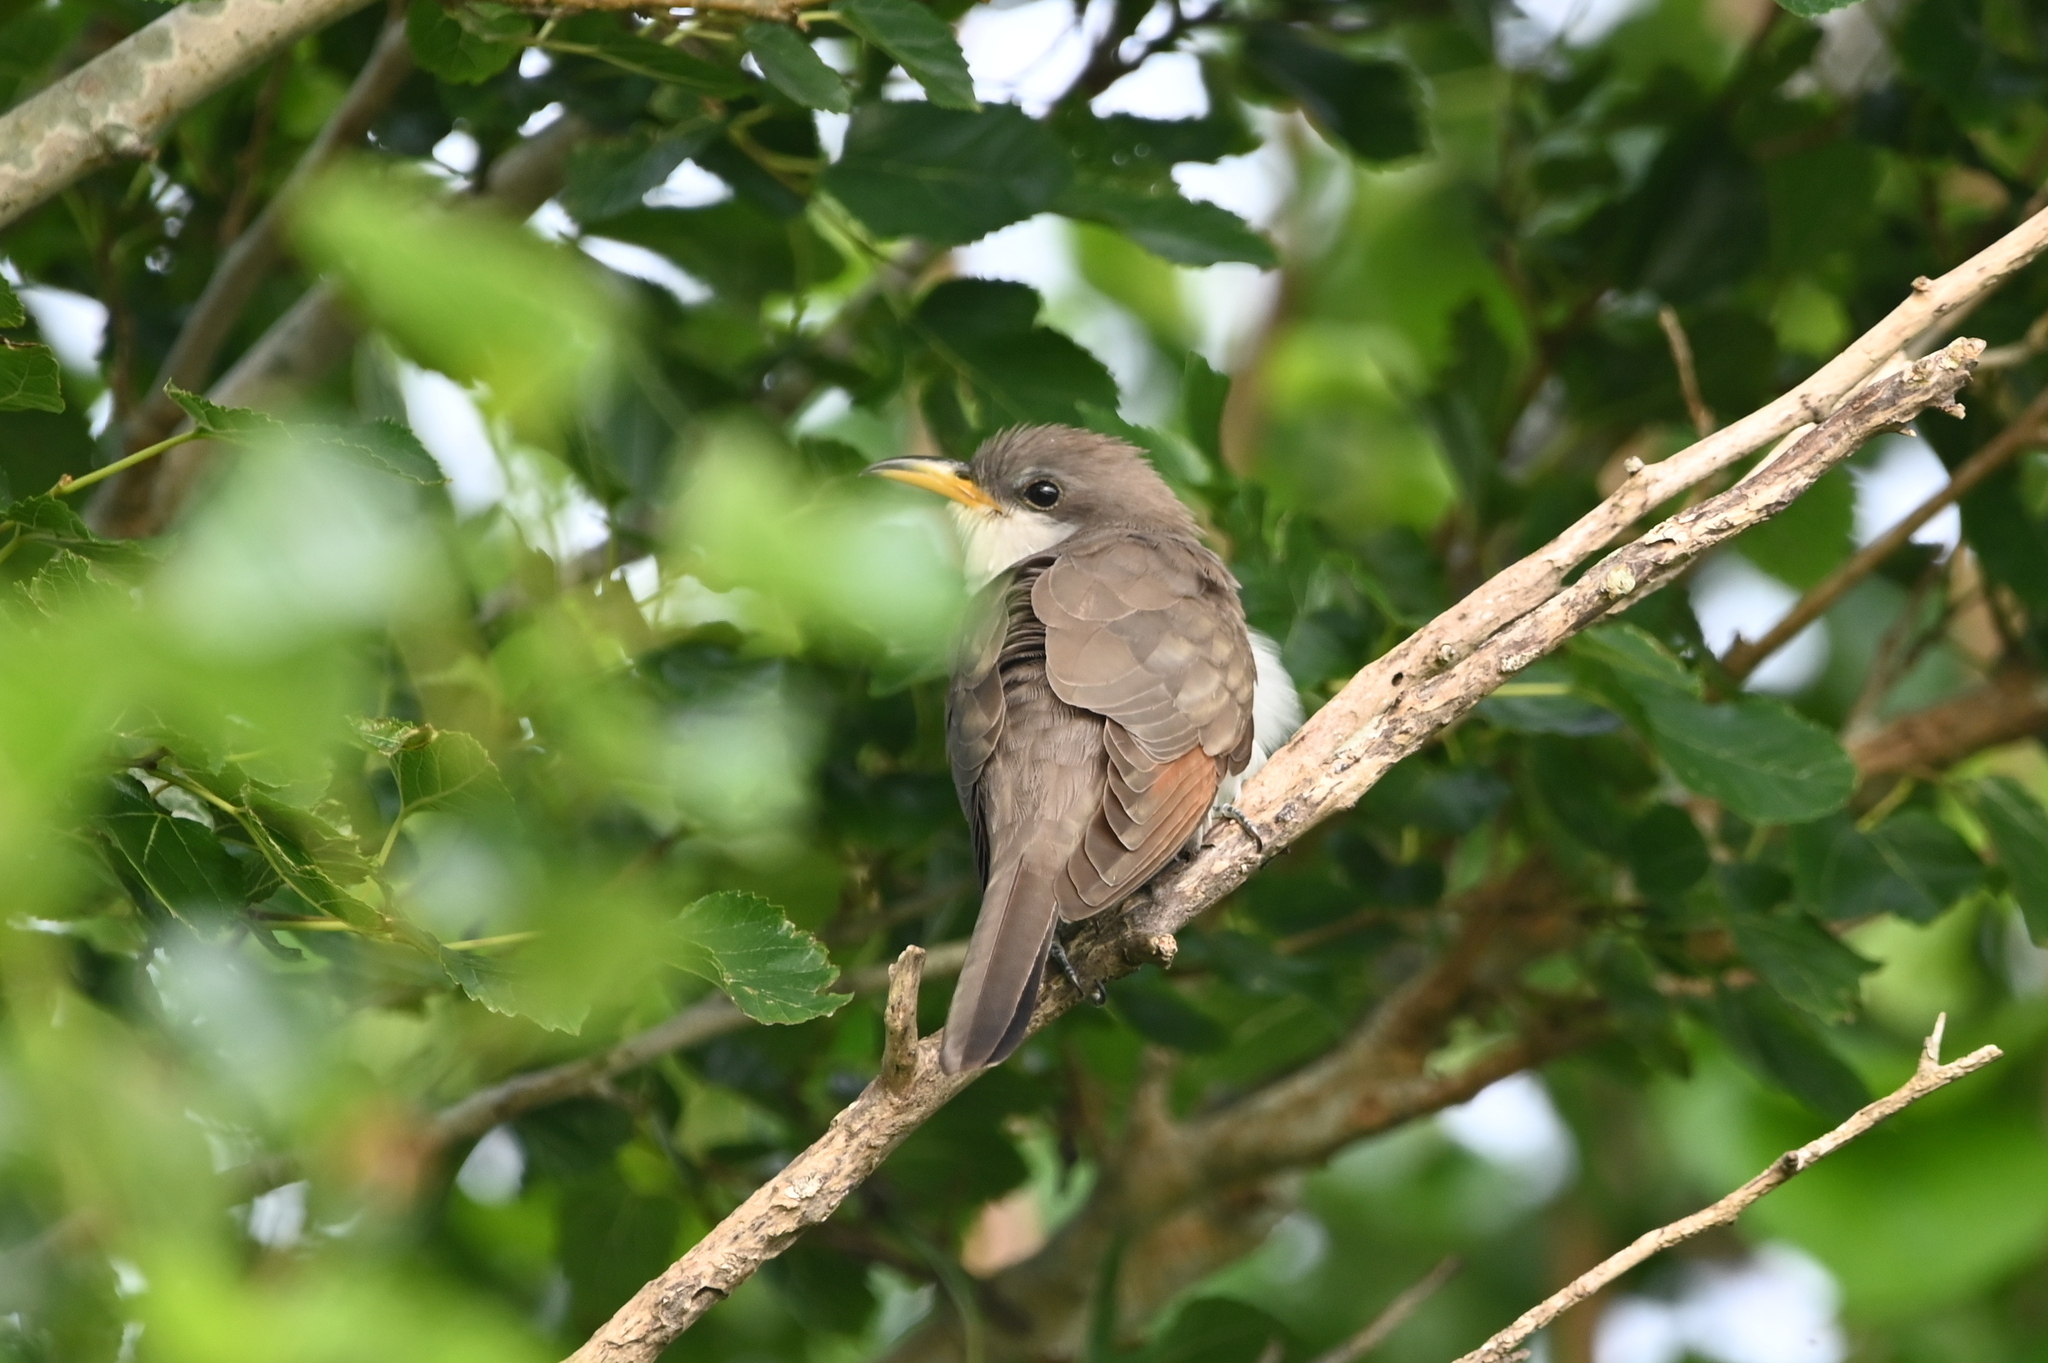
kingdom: Animalia
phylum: Chordata
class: Aves
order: Cuculiformes
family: Cuculidae
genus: Coccyzus
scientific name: Coccyzus americanus
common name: Yellow-billed cuckoo
